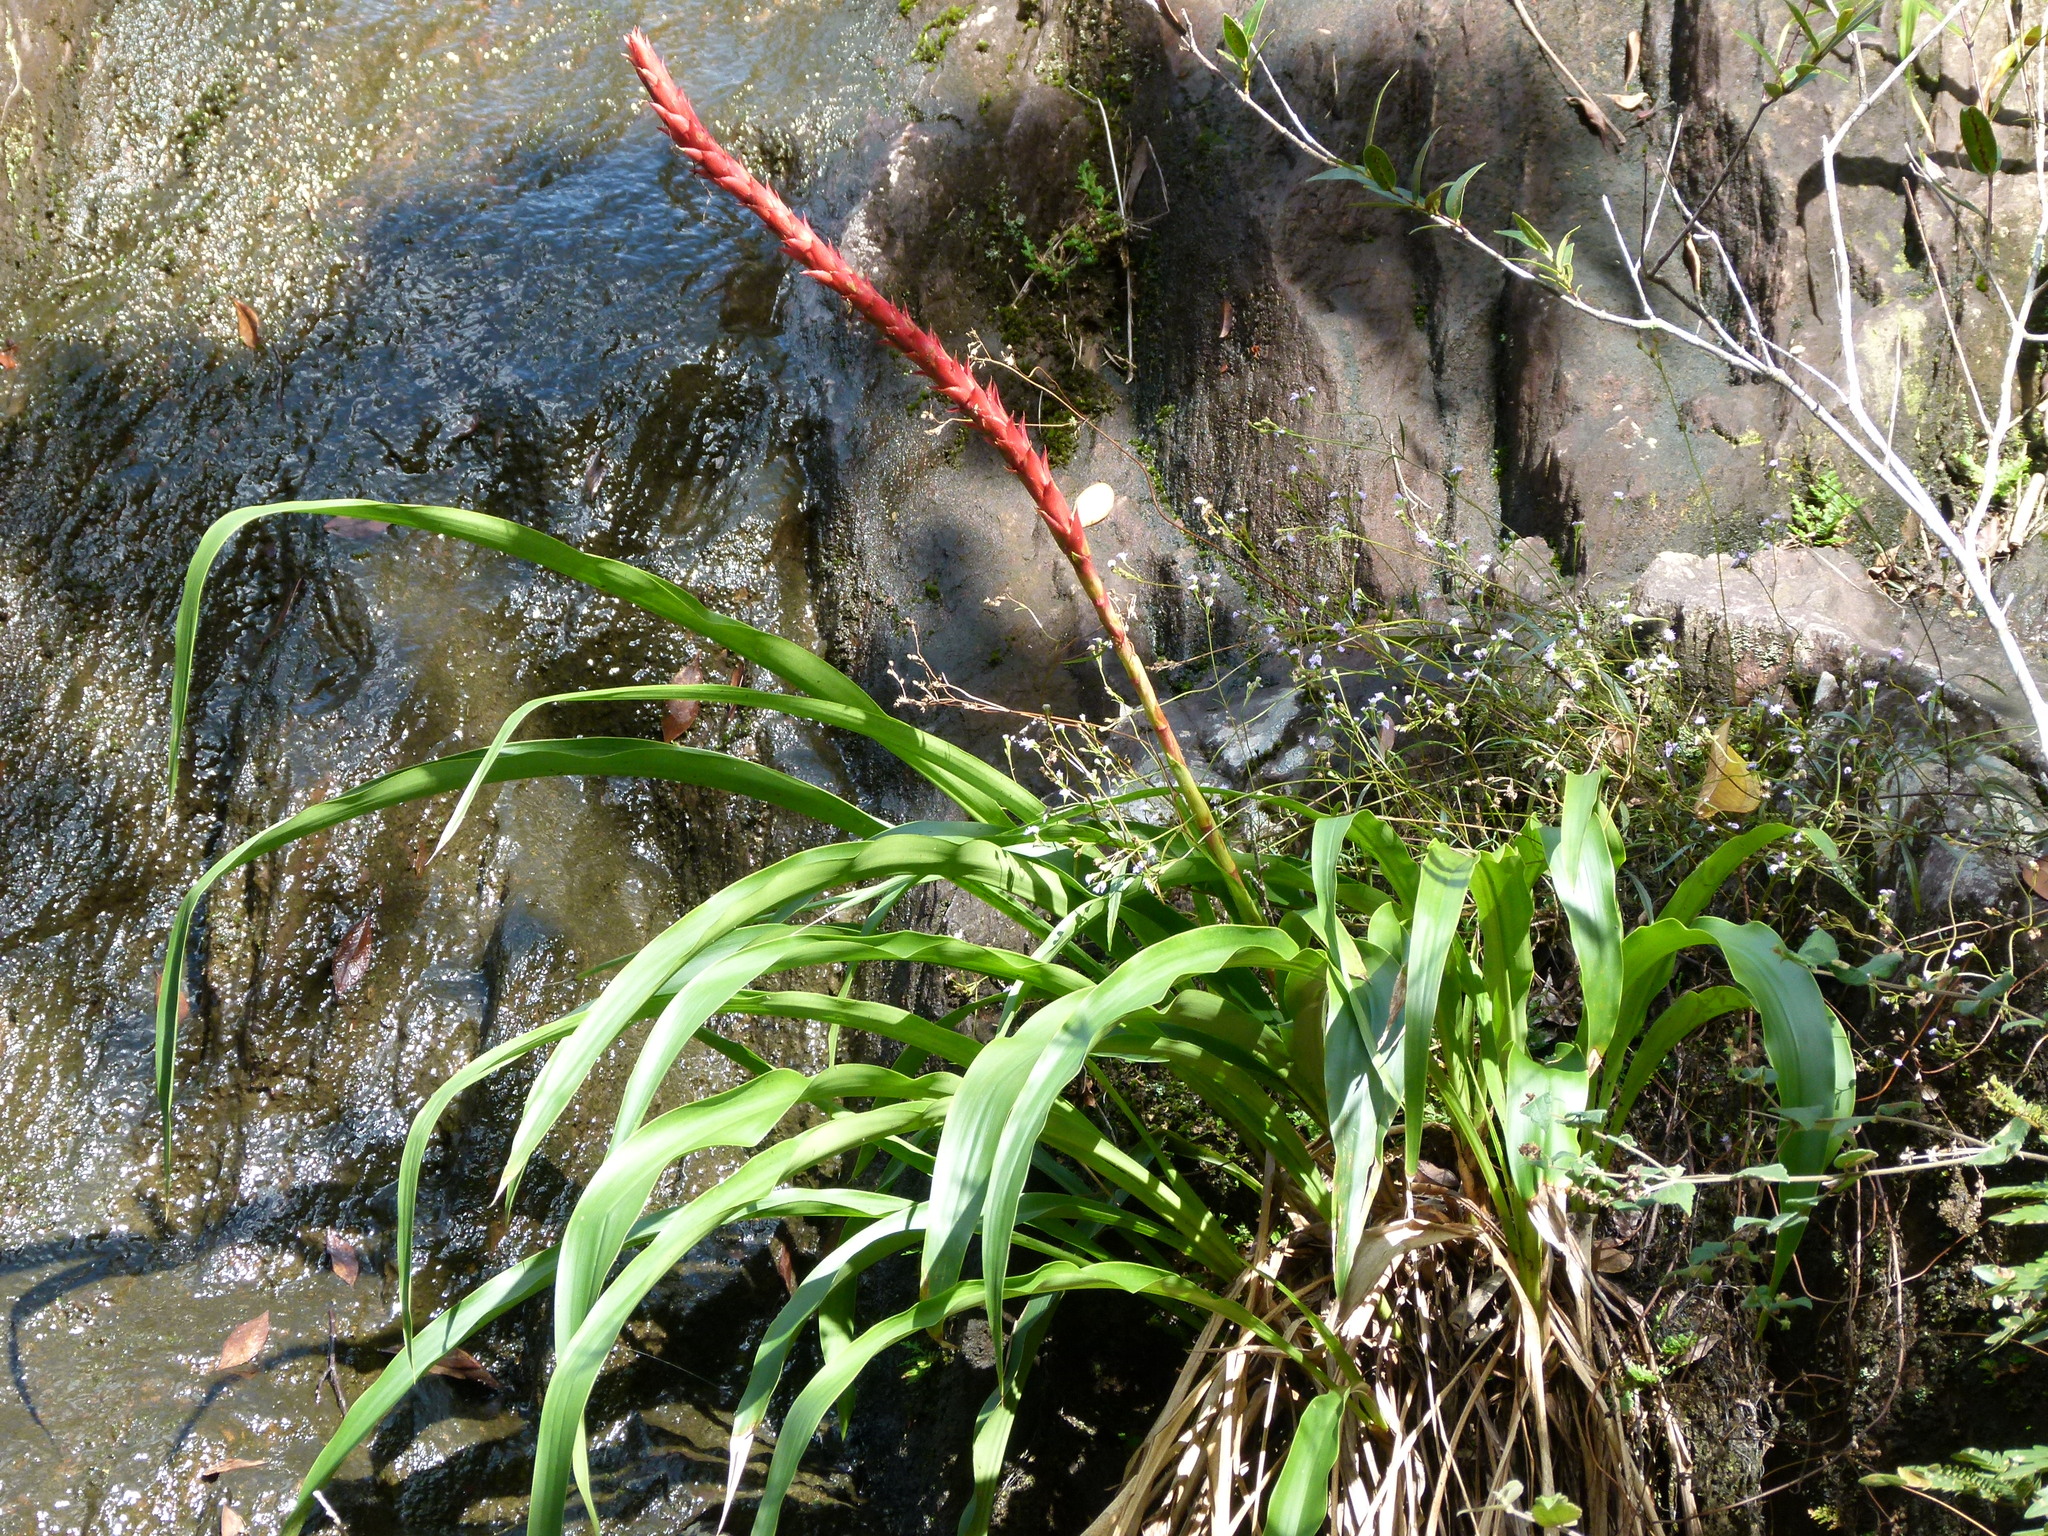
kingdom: Plantae
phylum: Tracheophyta
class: Liliopsida
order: Poales
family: Bromeliaceae
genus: Pitcairnia
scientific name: Pitcairnia imbricata
